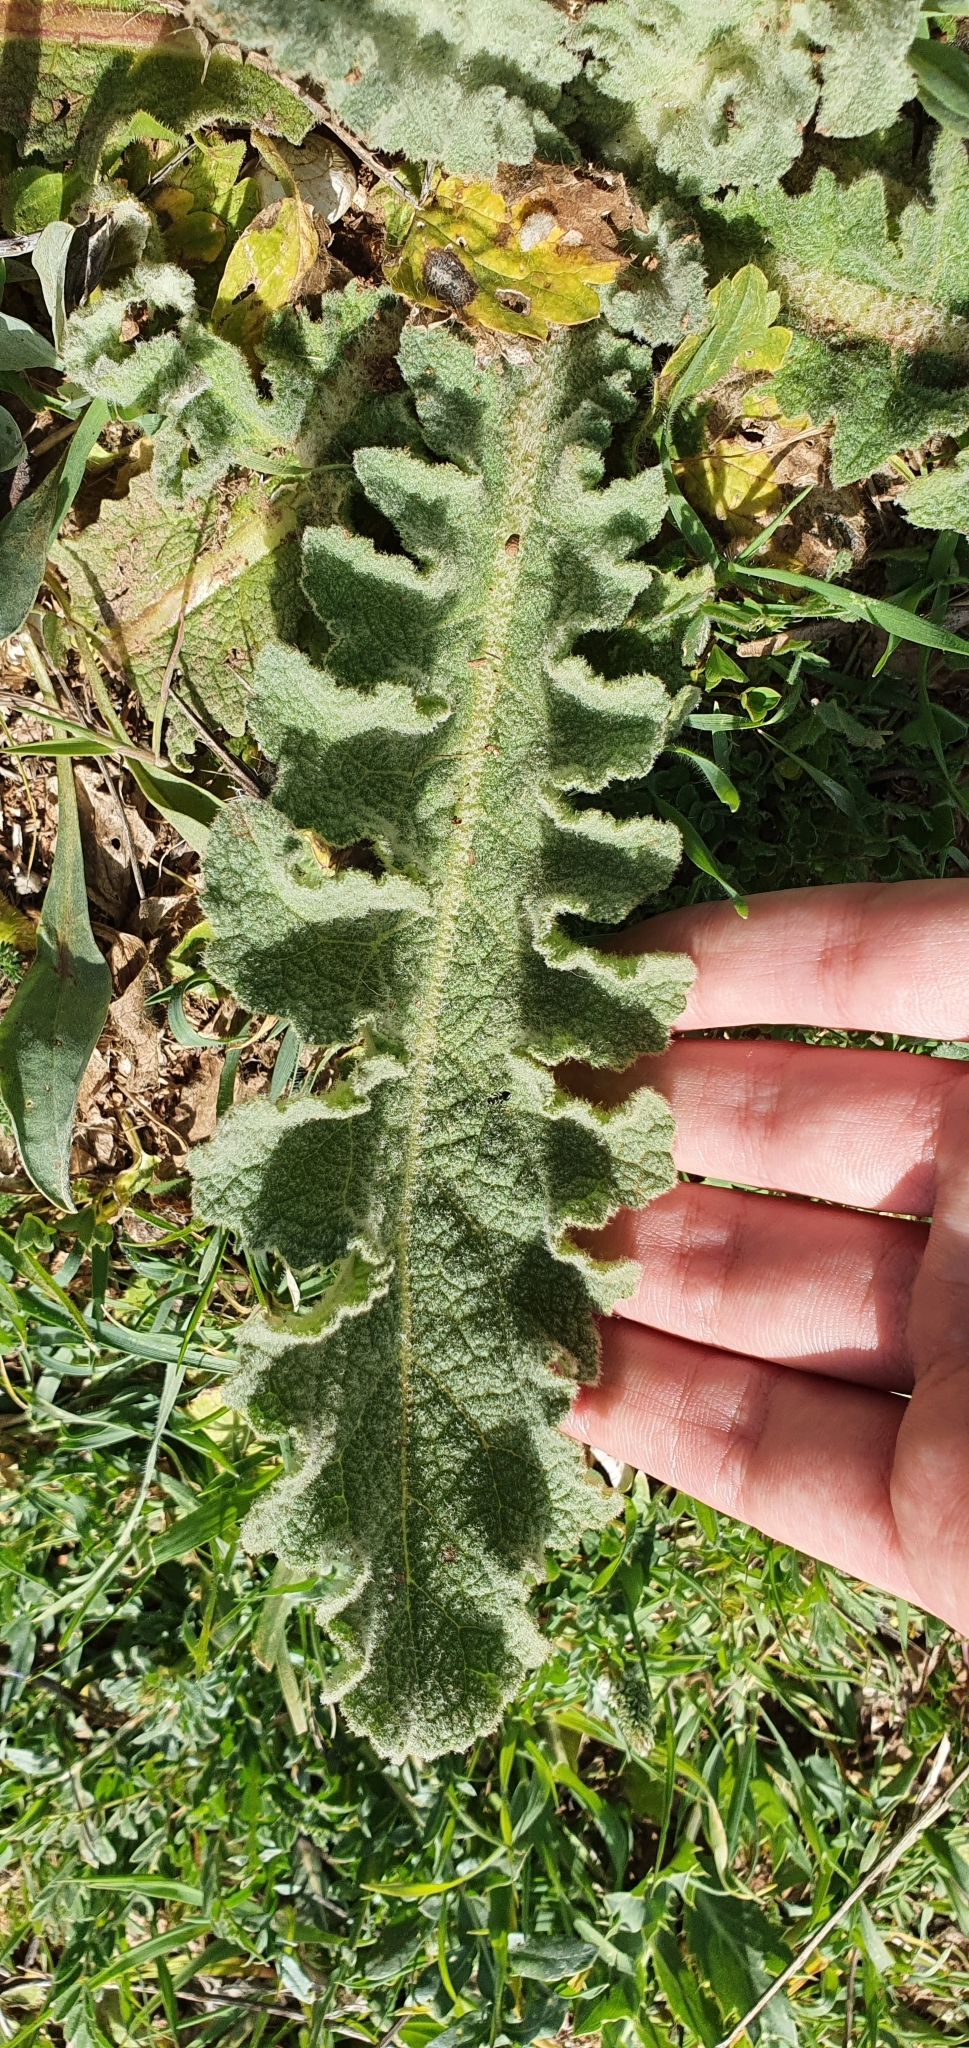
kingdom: Plantae
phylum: Tracheophyta
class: Magnoliopsida
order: Lamiales
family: Scrophulariaceae
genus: Verbascum
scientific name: Verbascum sinuatum
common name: Wavyleaf mullein
